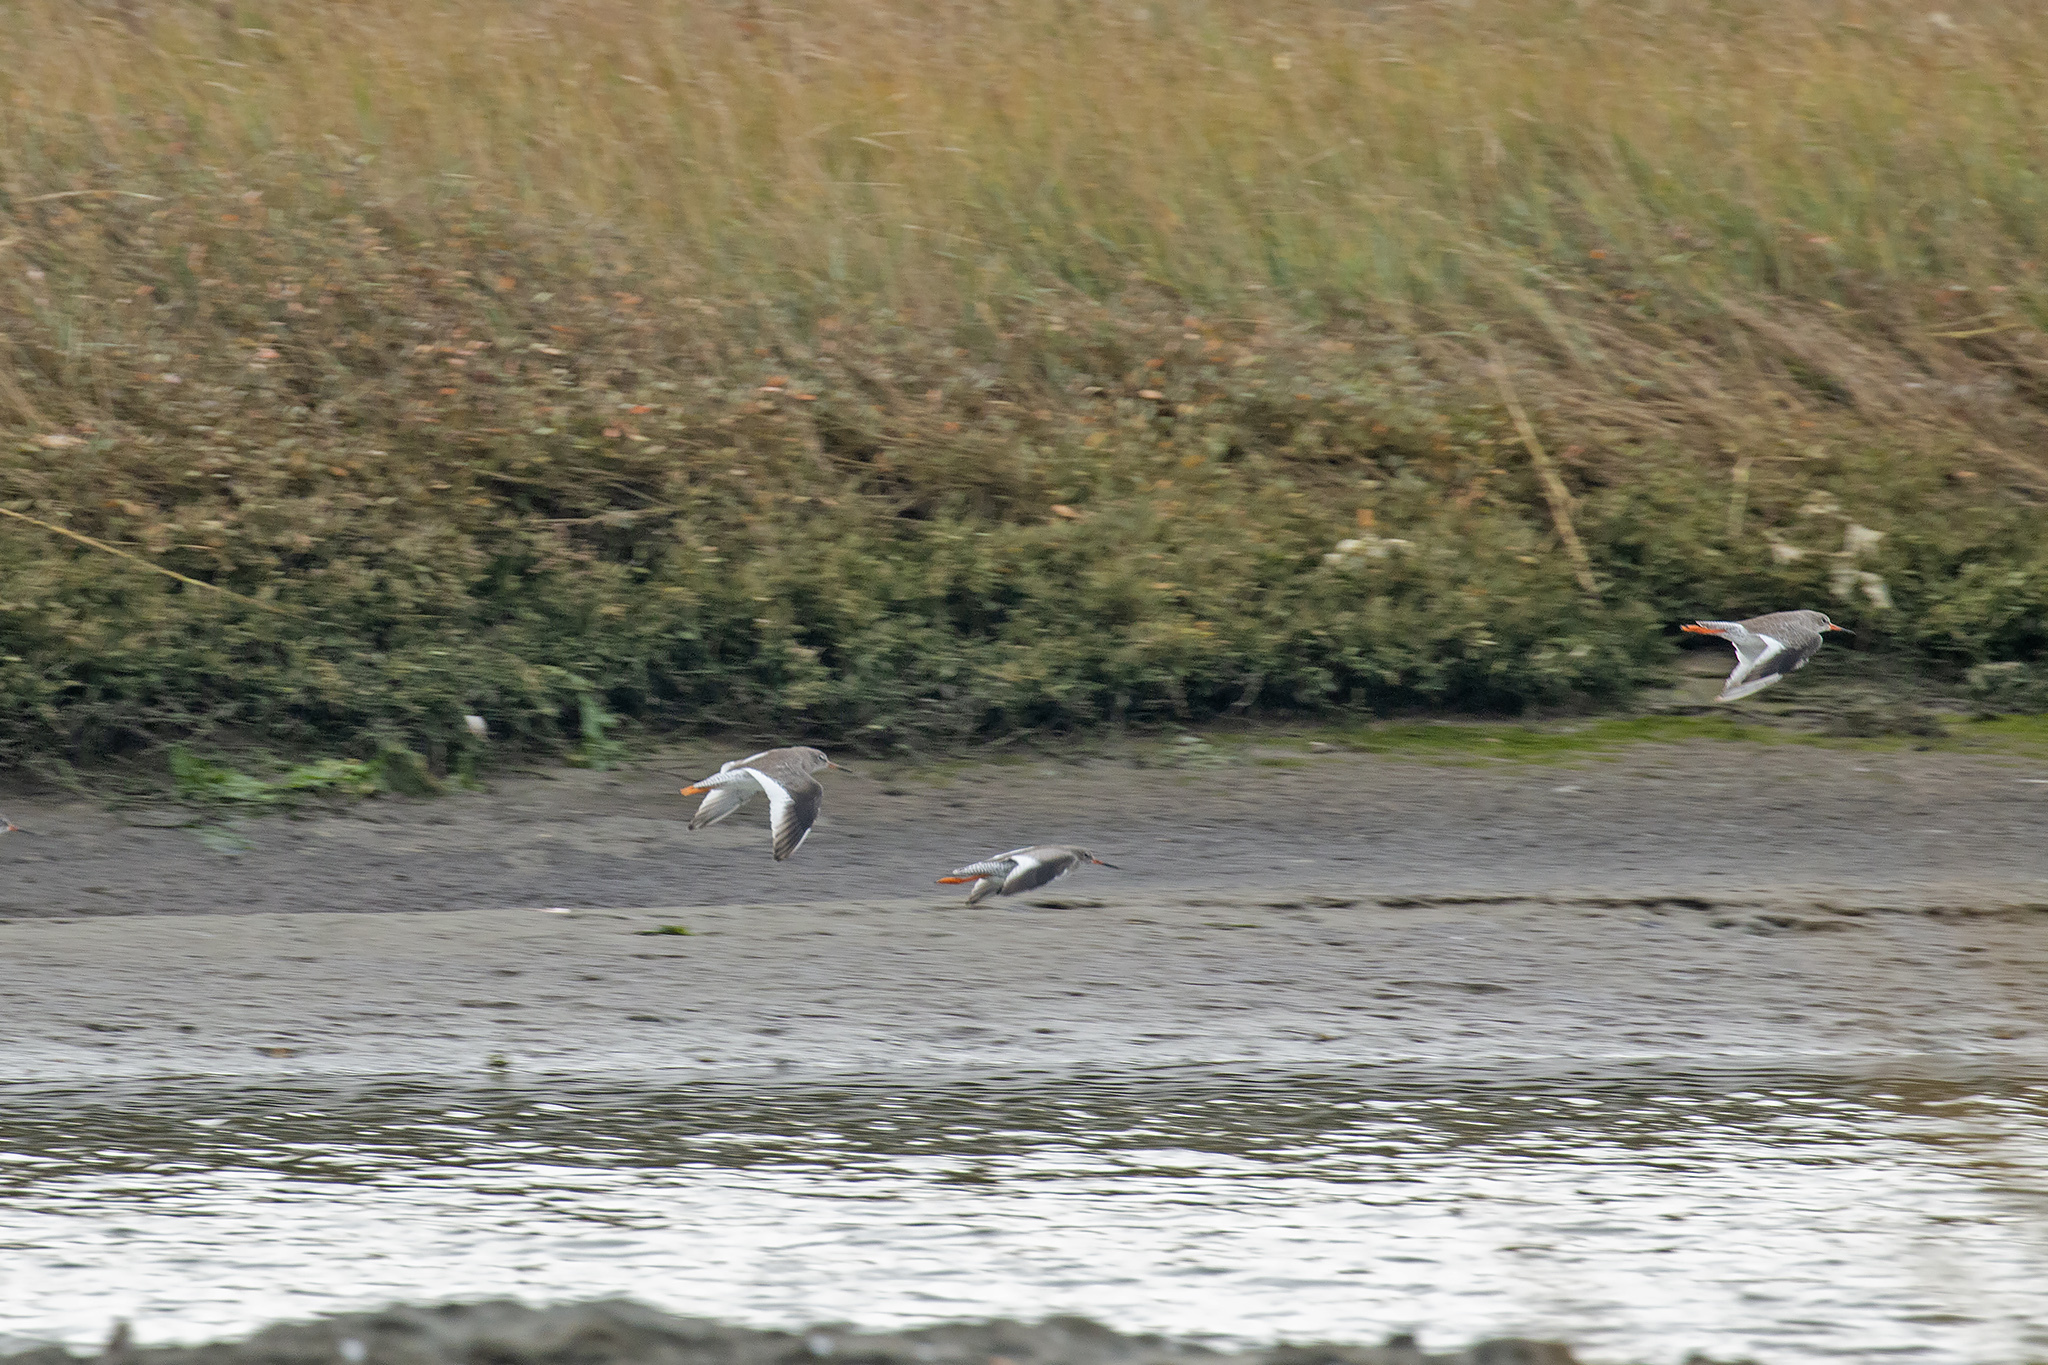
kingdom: Animalia
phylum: Chordata
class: Aves
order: Charadriiformes
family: Scolopacidae
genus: Tringa
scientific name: Tringa totanus
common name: Common redshank
